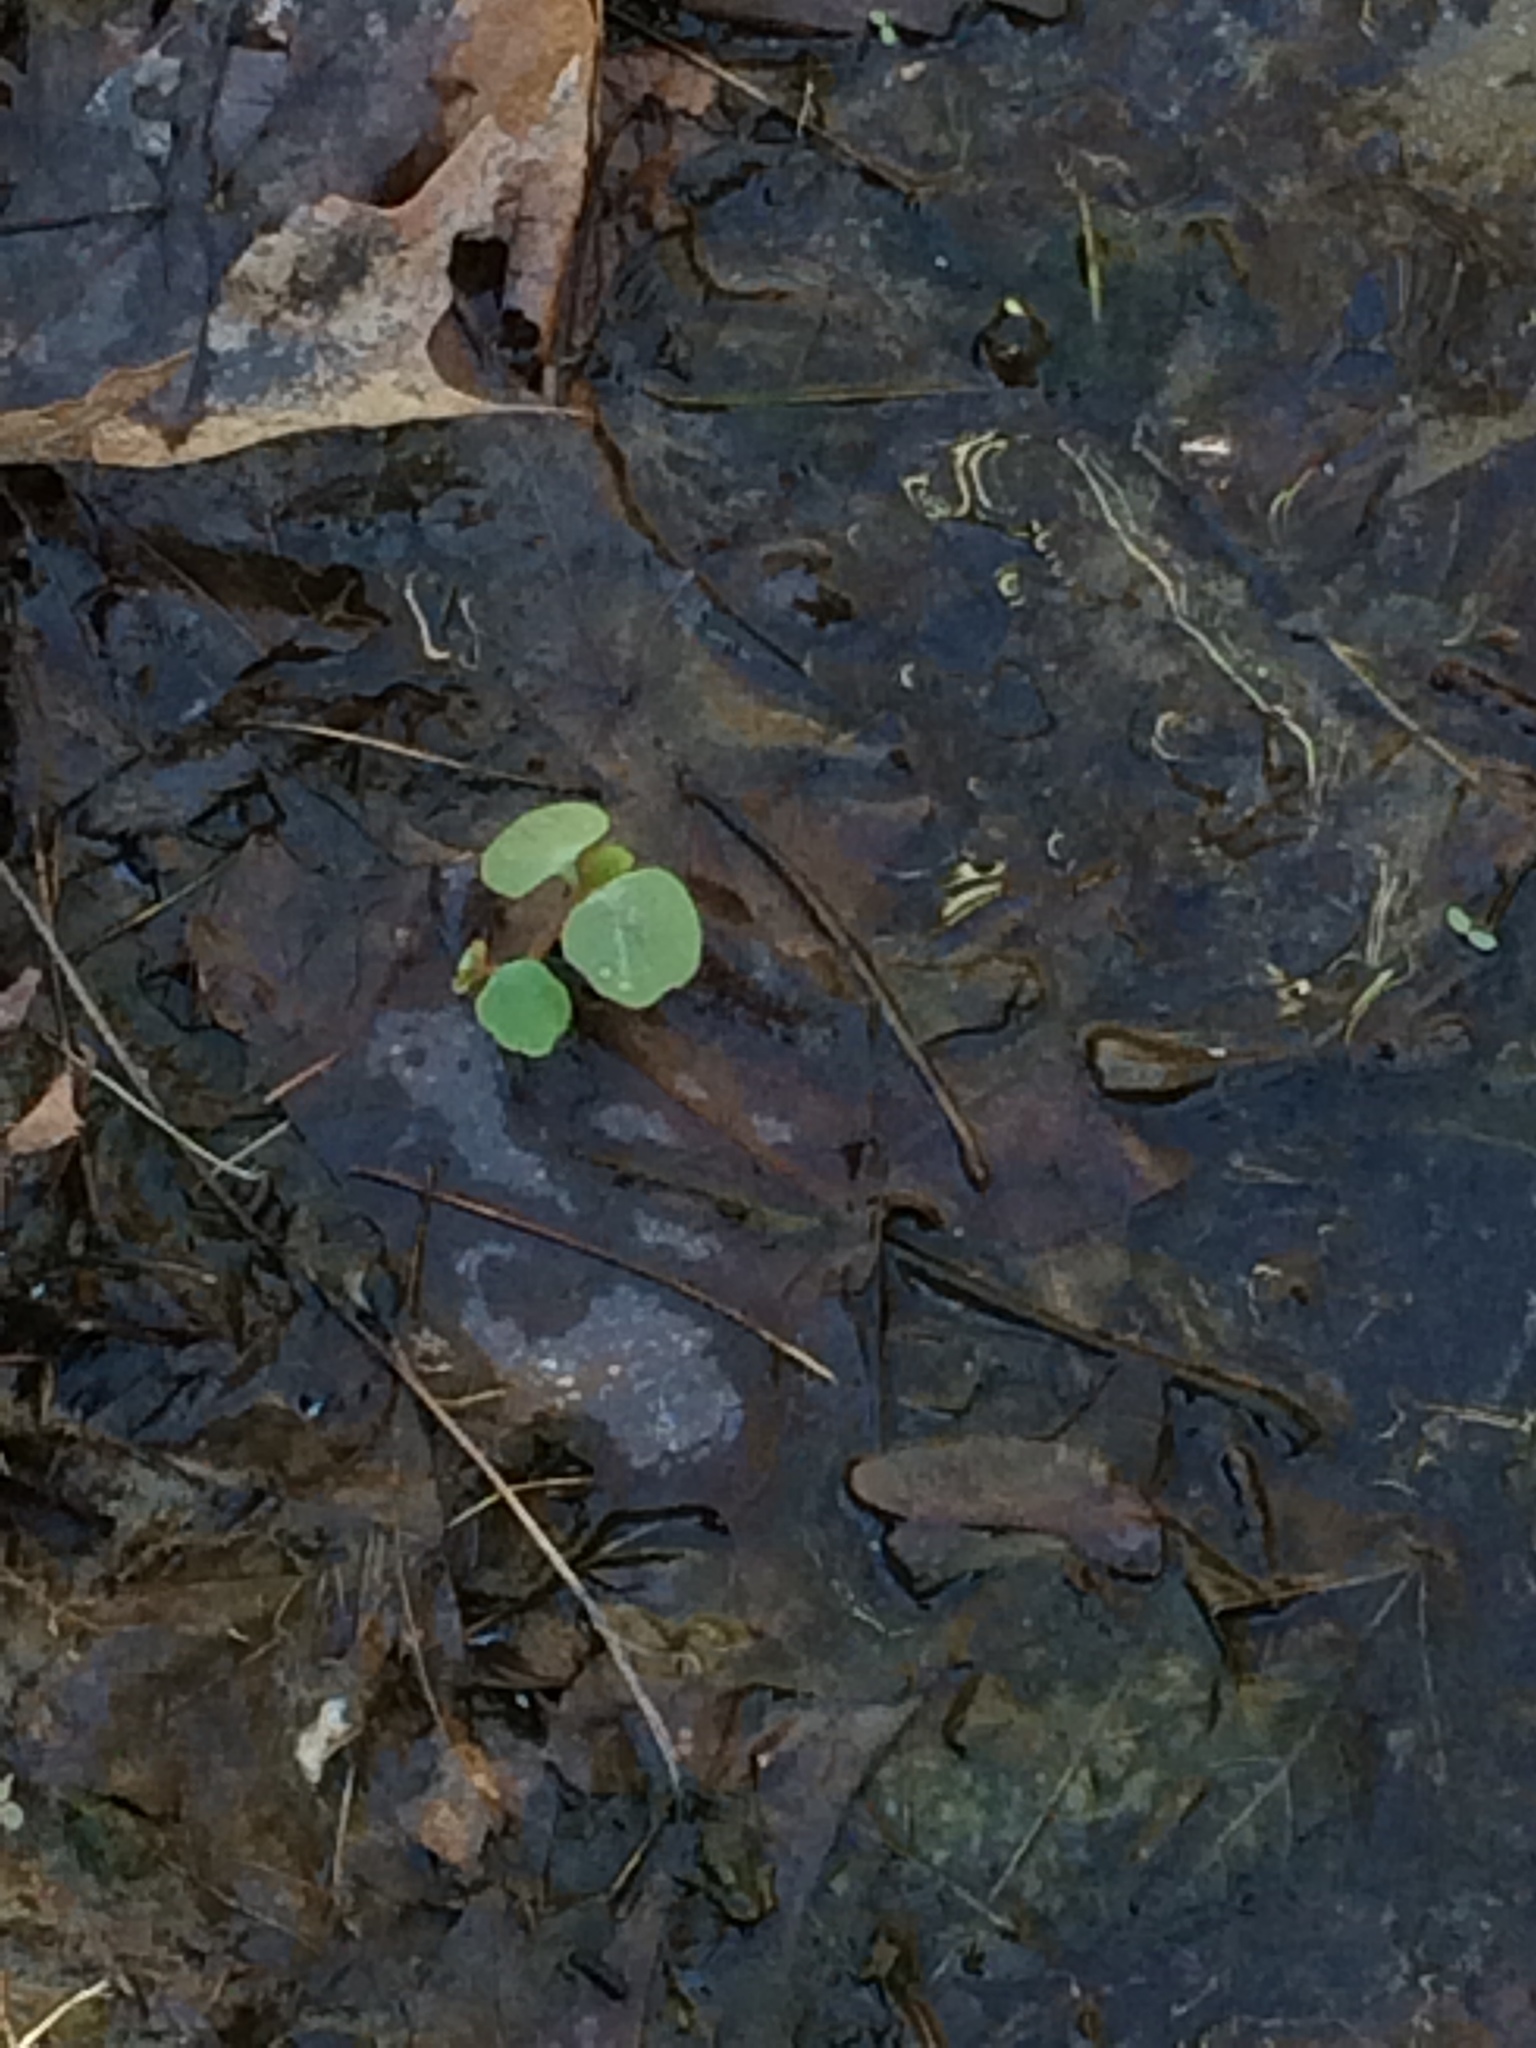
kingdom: Plantae
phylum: Tracheophyta
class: Magnoliopsida
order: Ericales
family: Balsaminaceae
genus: Impatiens
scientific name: Impatiens capensis
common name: Orange balsam
